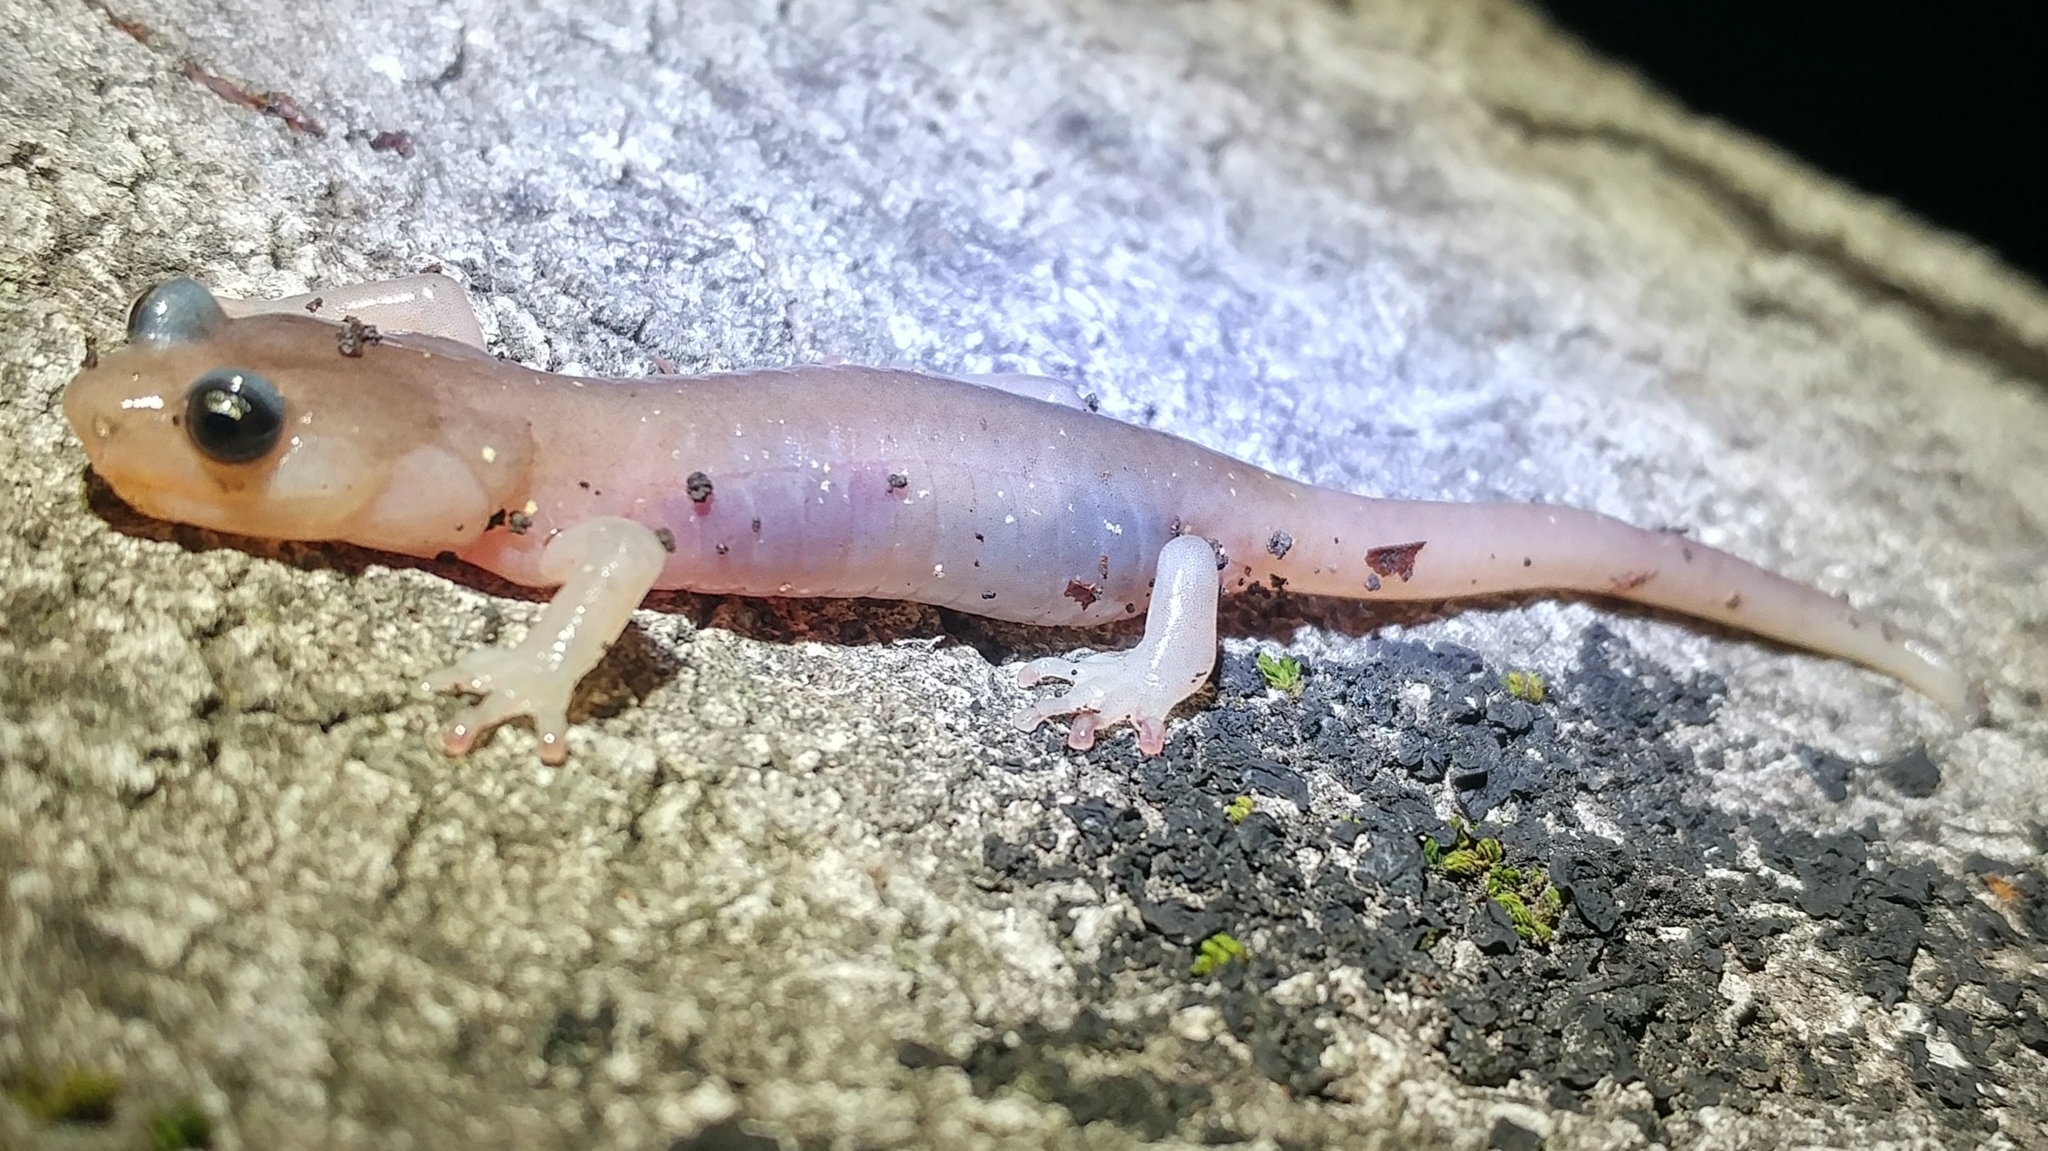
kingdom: Animalia
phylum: Chordata
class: Amphibia
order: Caudata
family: Plethodontidae
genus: Aneides
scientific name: Aneides lugubris
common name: Arboreal salamander
